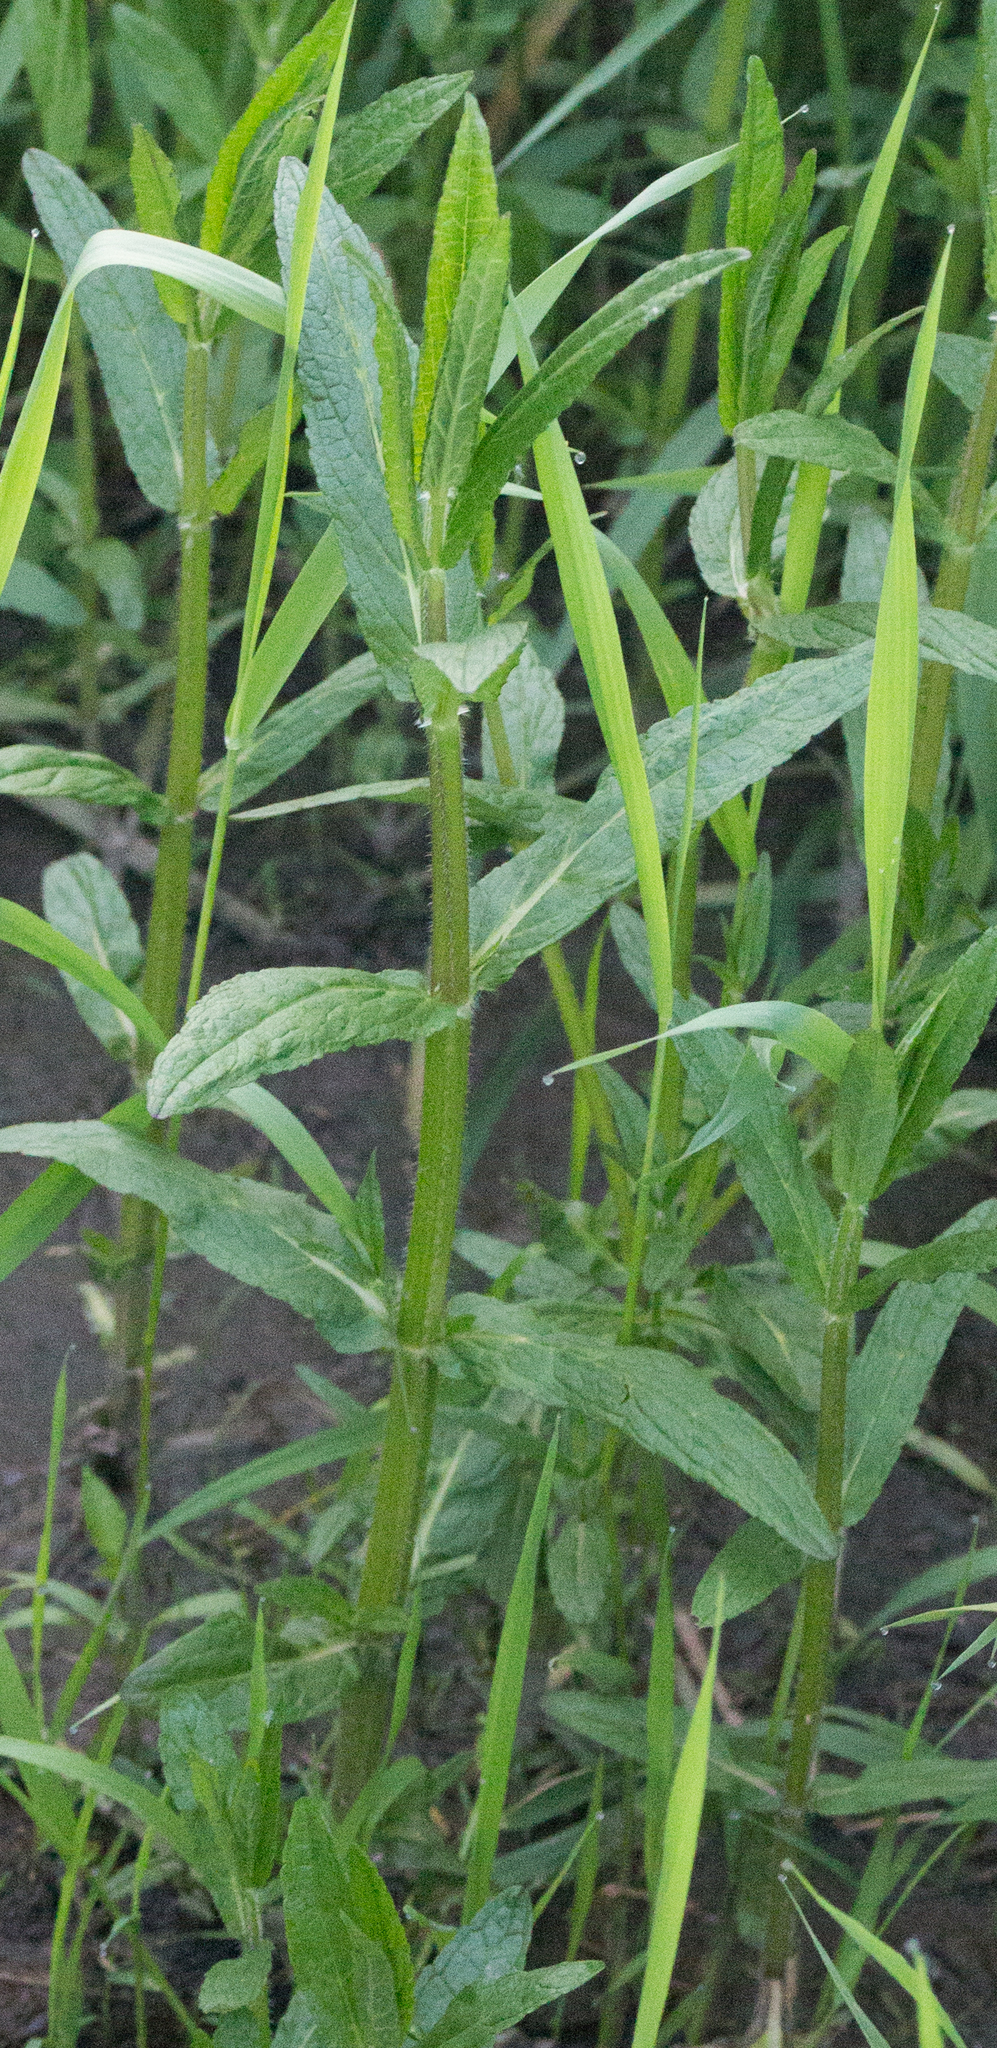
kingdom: Plantae
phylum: Tracheophyta
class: Magnoliopsida
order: Lamiales
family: Lamiaceae
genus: Stachys
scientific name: Stachys palustris
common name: Marsh woundwort
